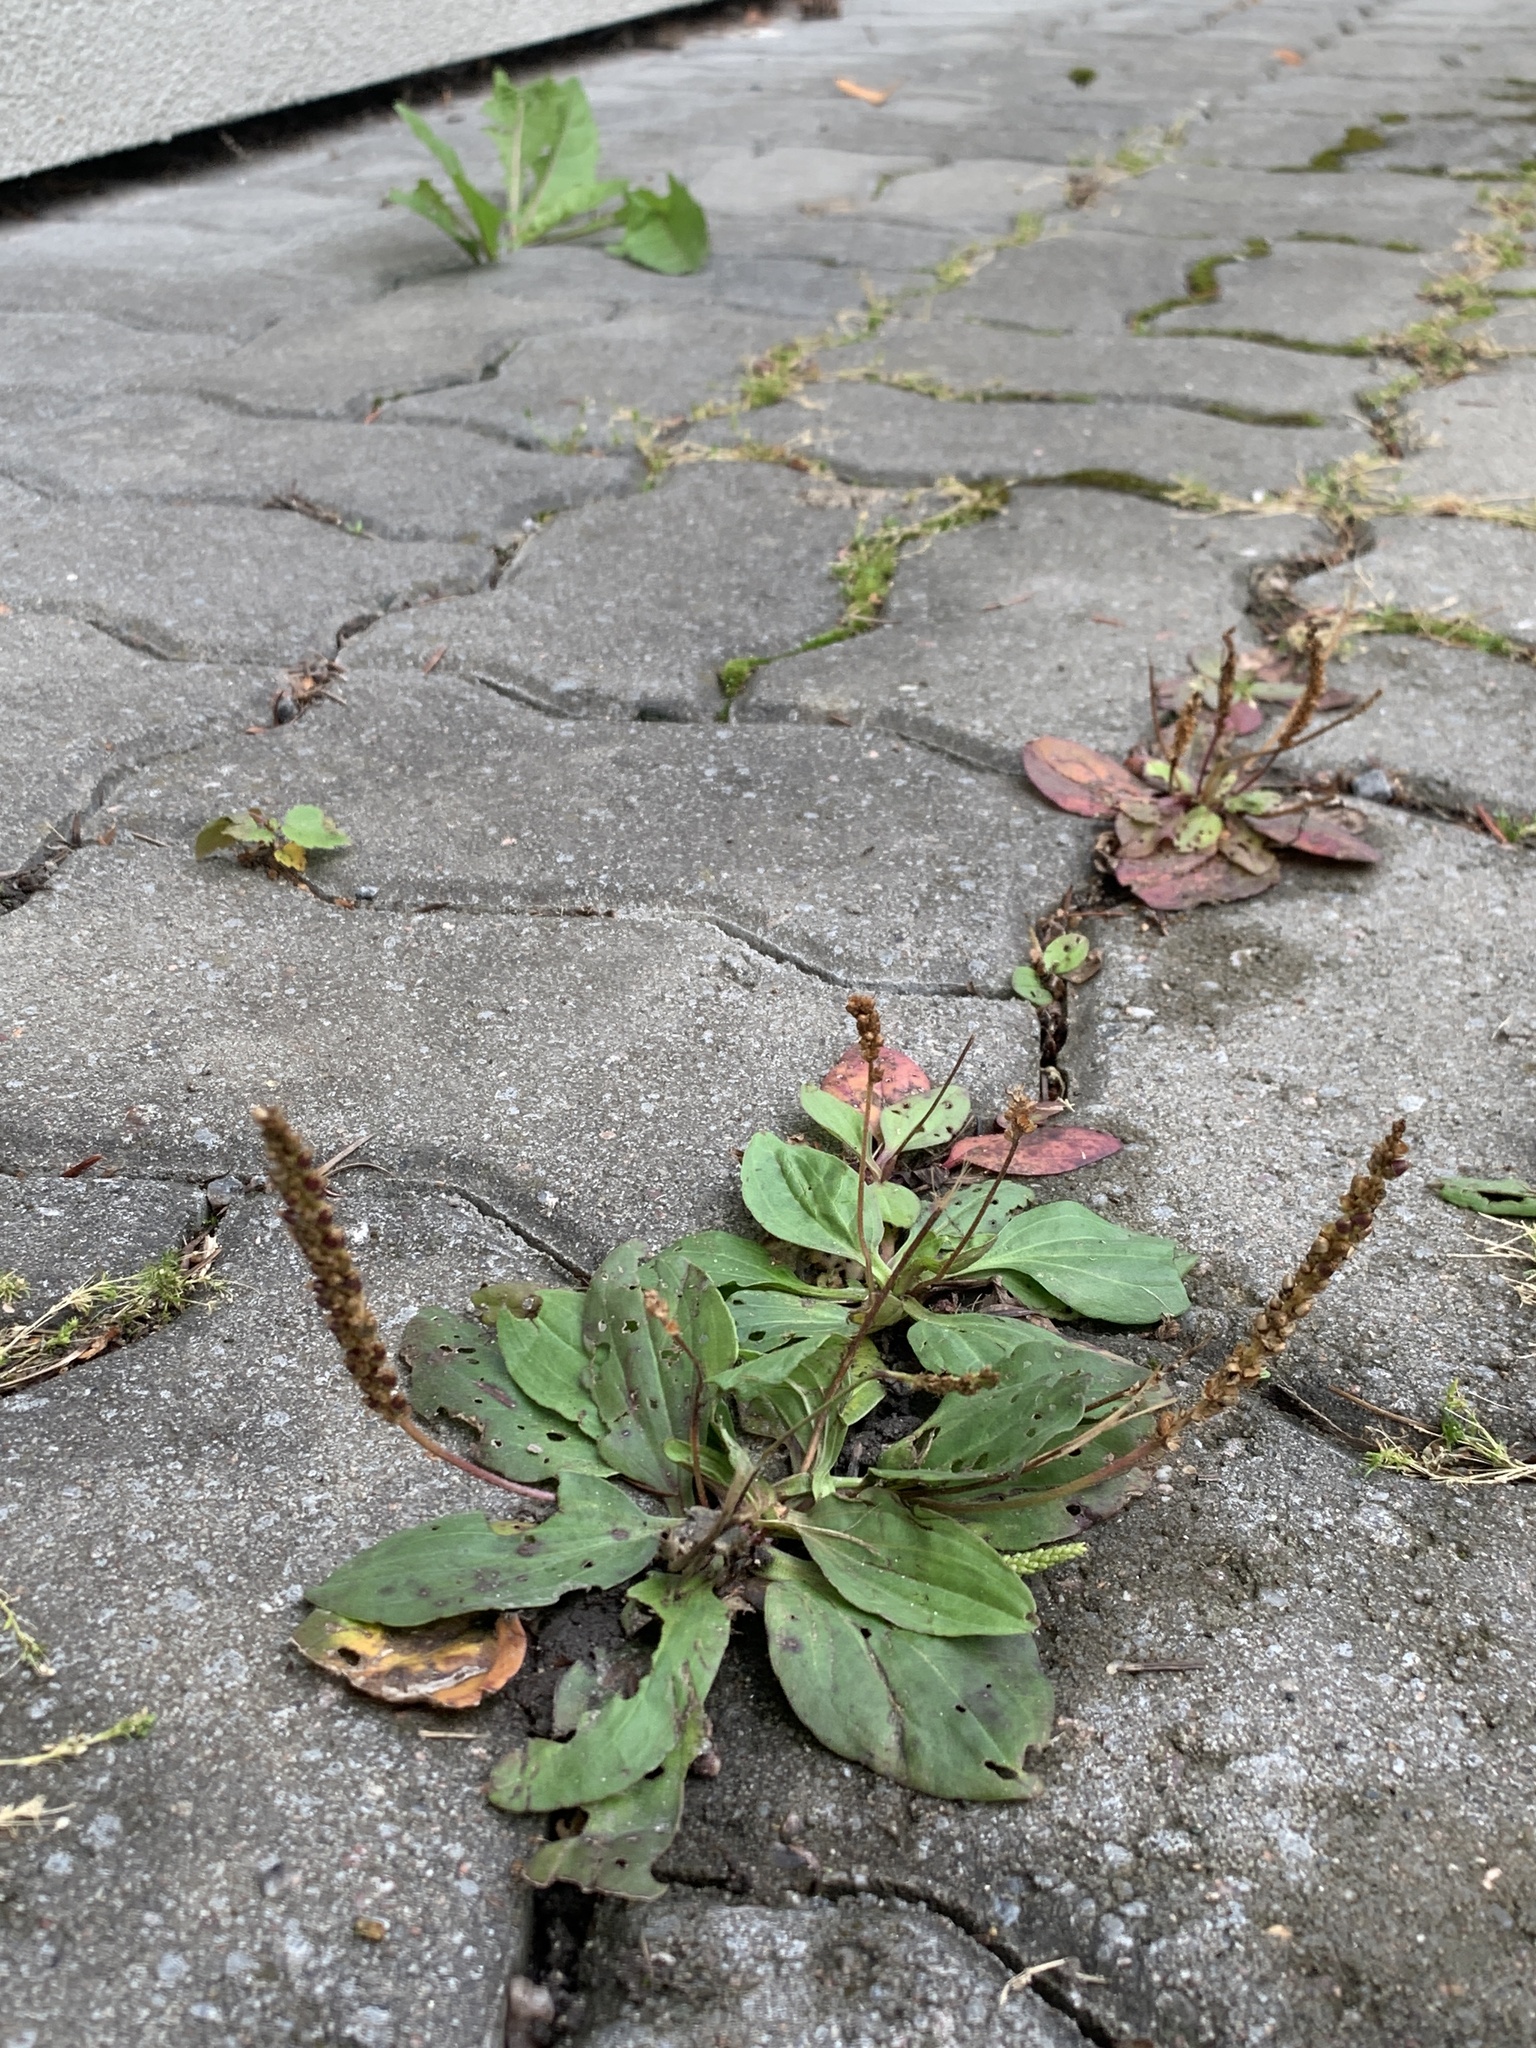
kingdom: Plantae
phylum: Tracheophyta
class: Magnoliopsida
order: Lamiales
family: Plantaginaceae
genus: Plantago
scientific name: Plantago major
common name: Common plantain
